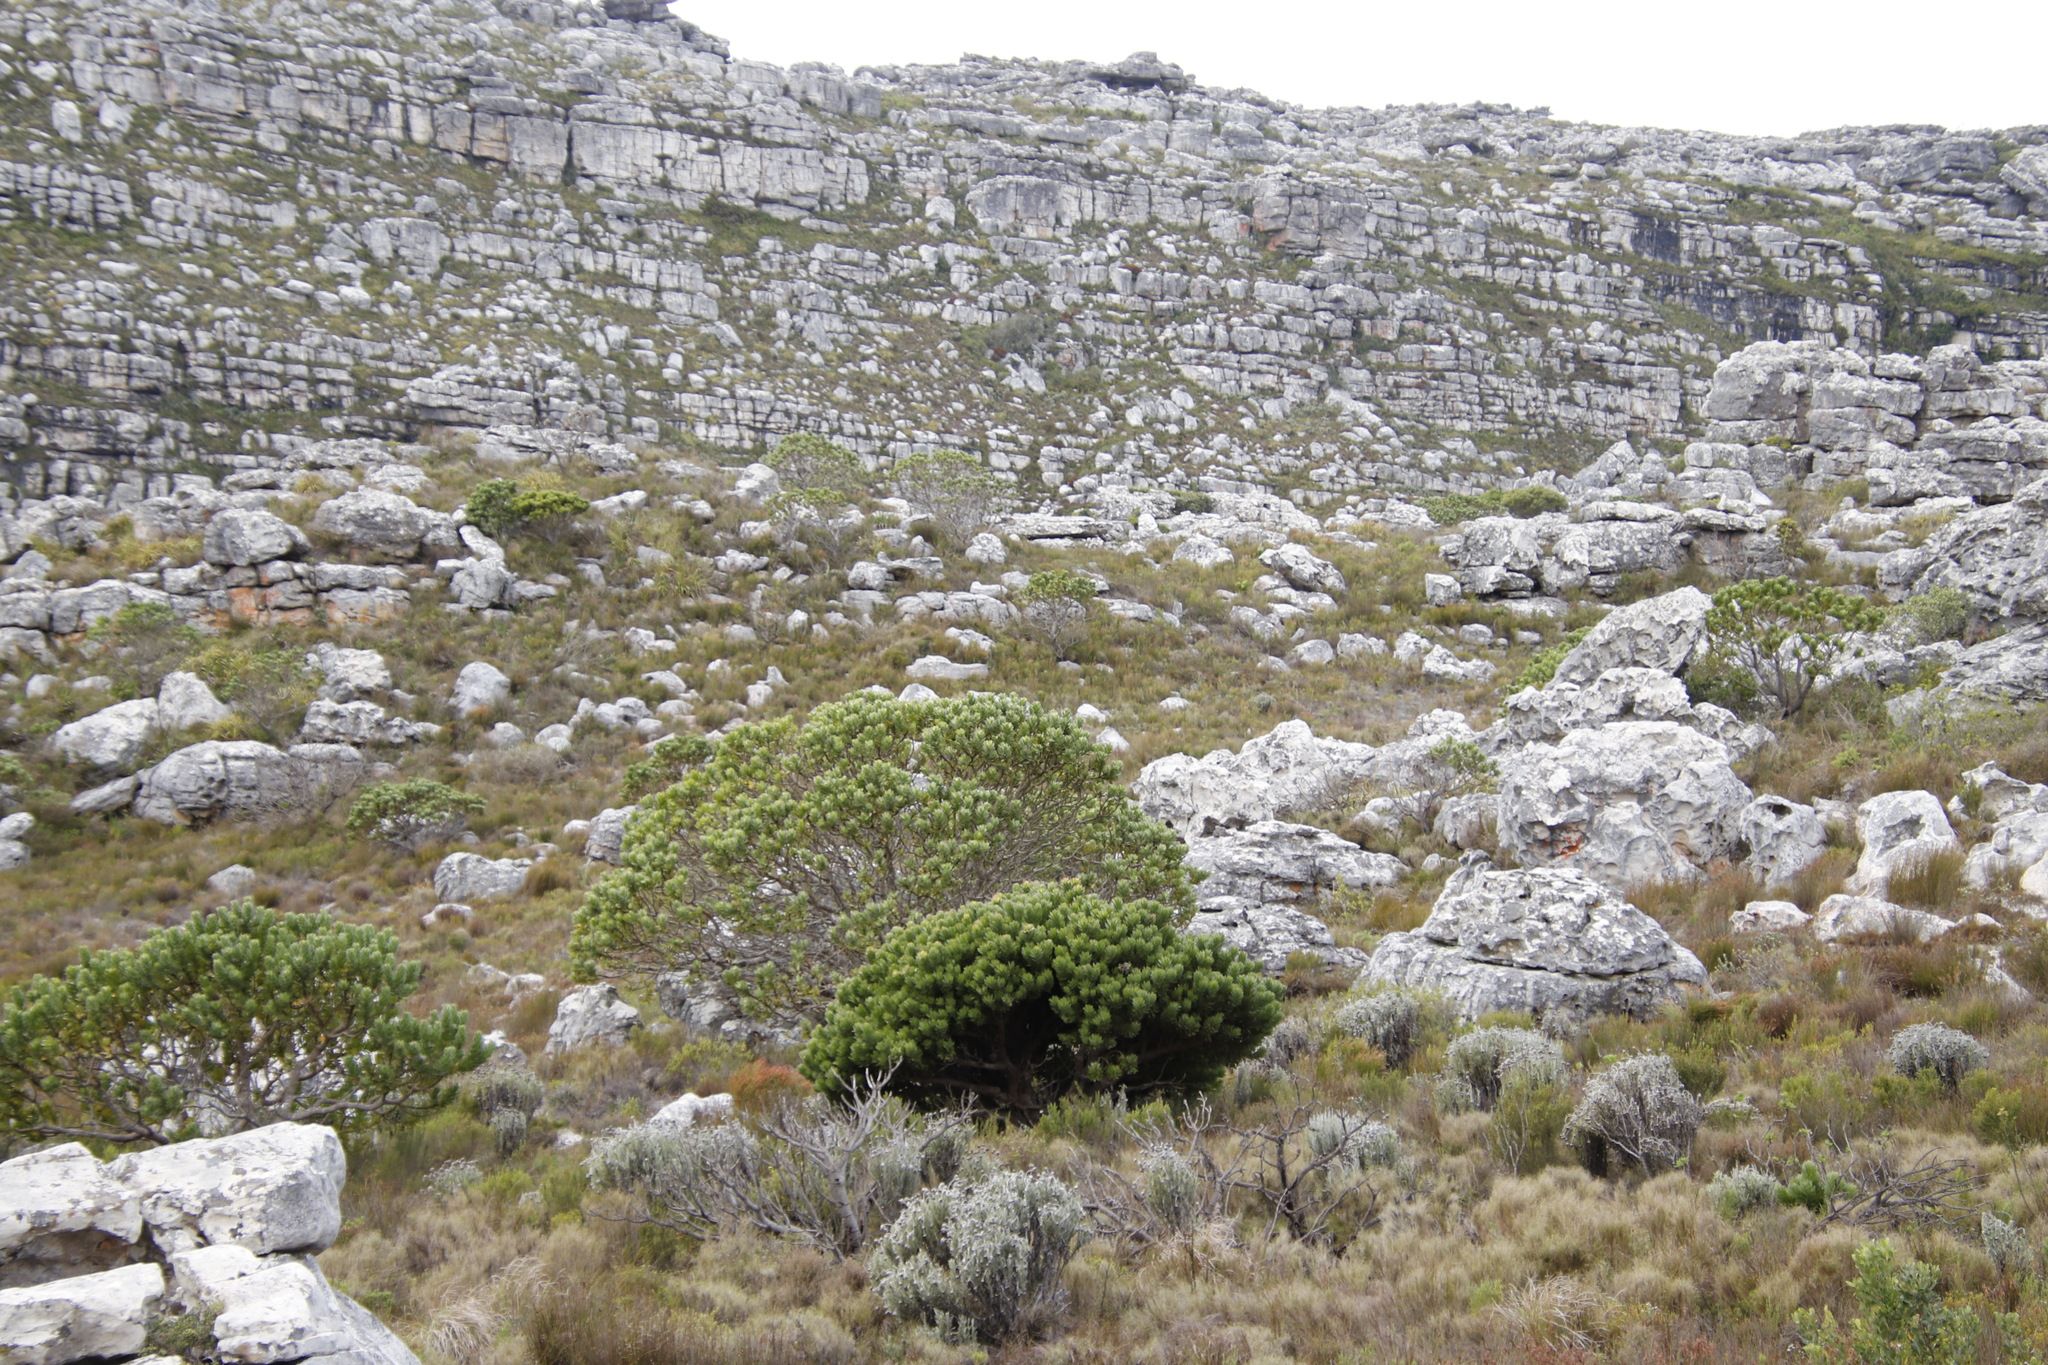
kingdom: Plantae
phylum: Tracheophyta
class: Magnoliopsida
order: Proteales
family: Proteaceae
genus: Leucospermum
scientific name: Leucospermum conocarpodendron
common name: Tree pincushion
